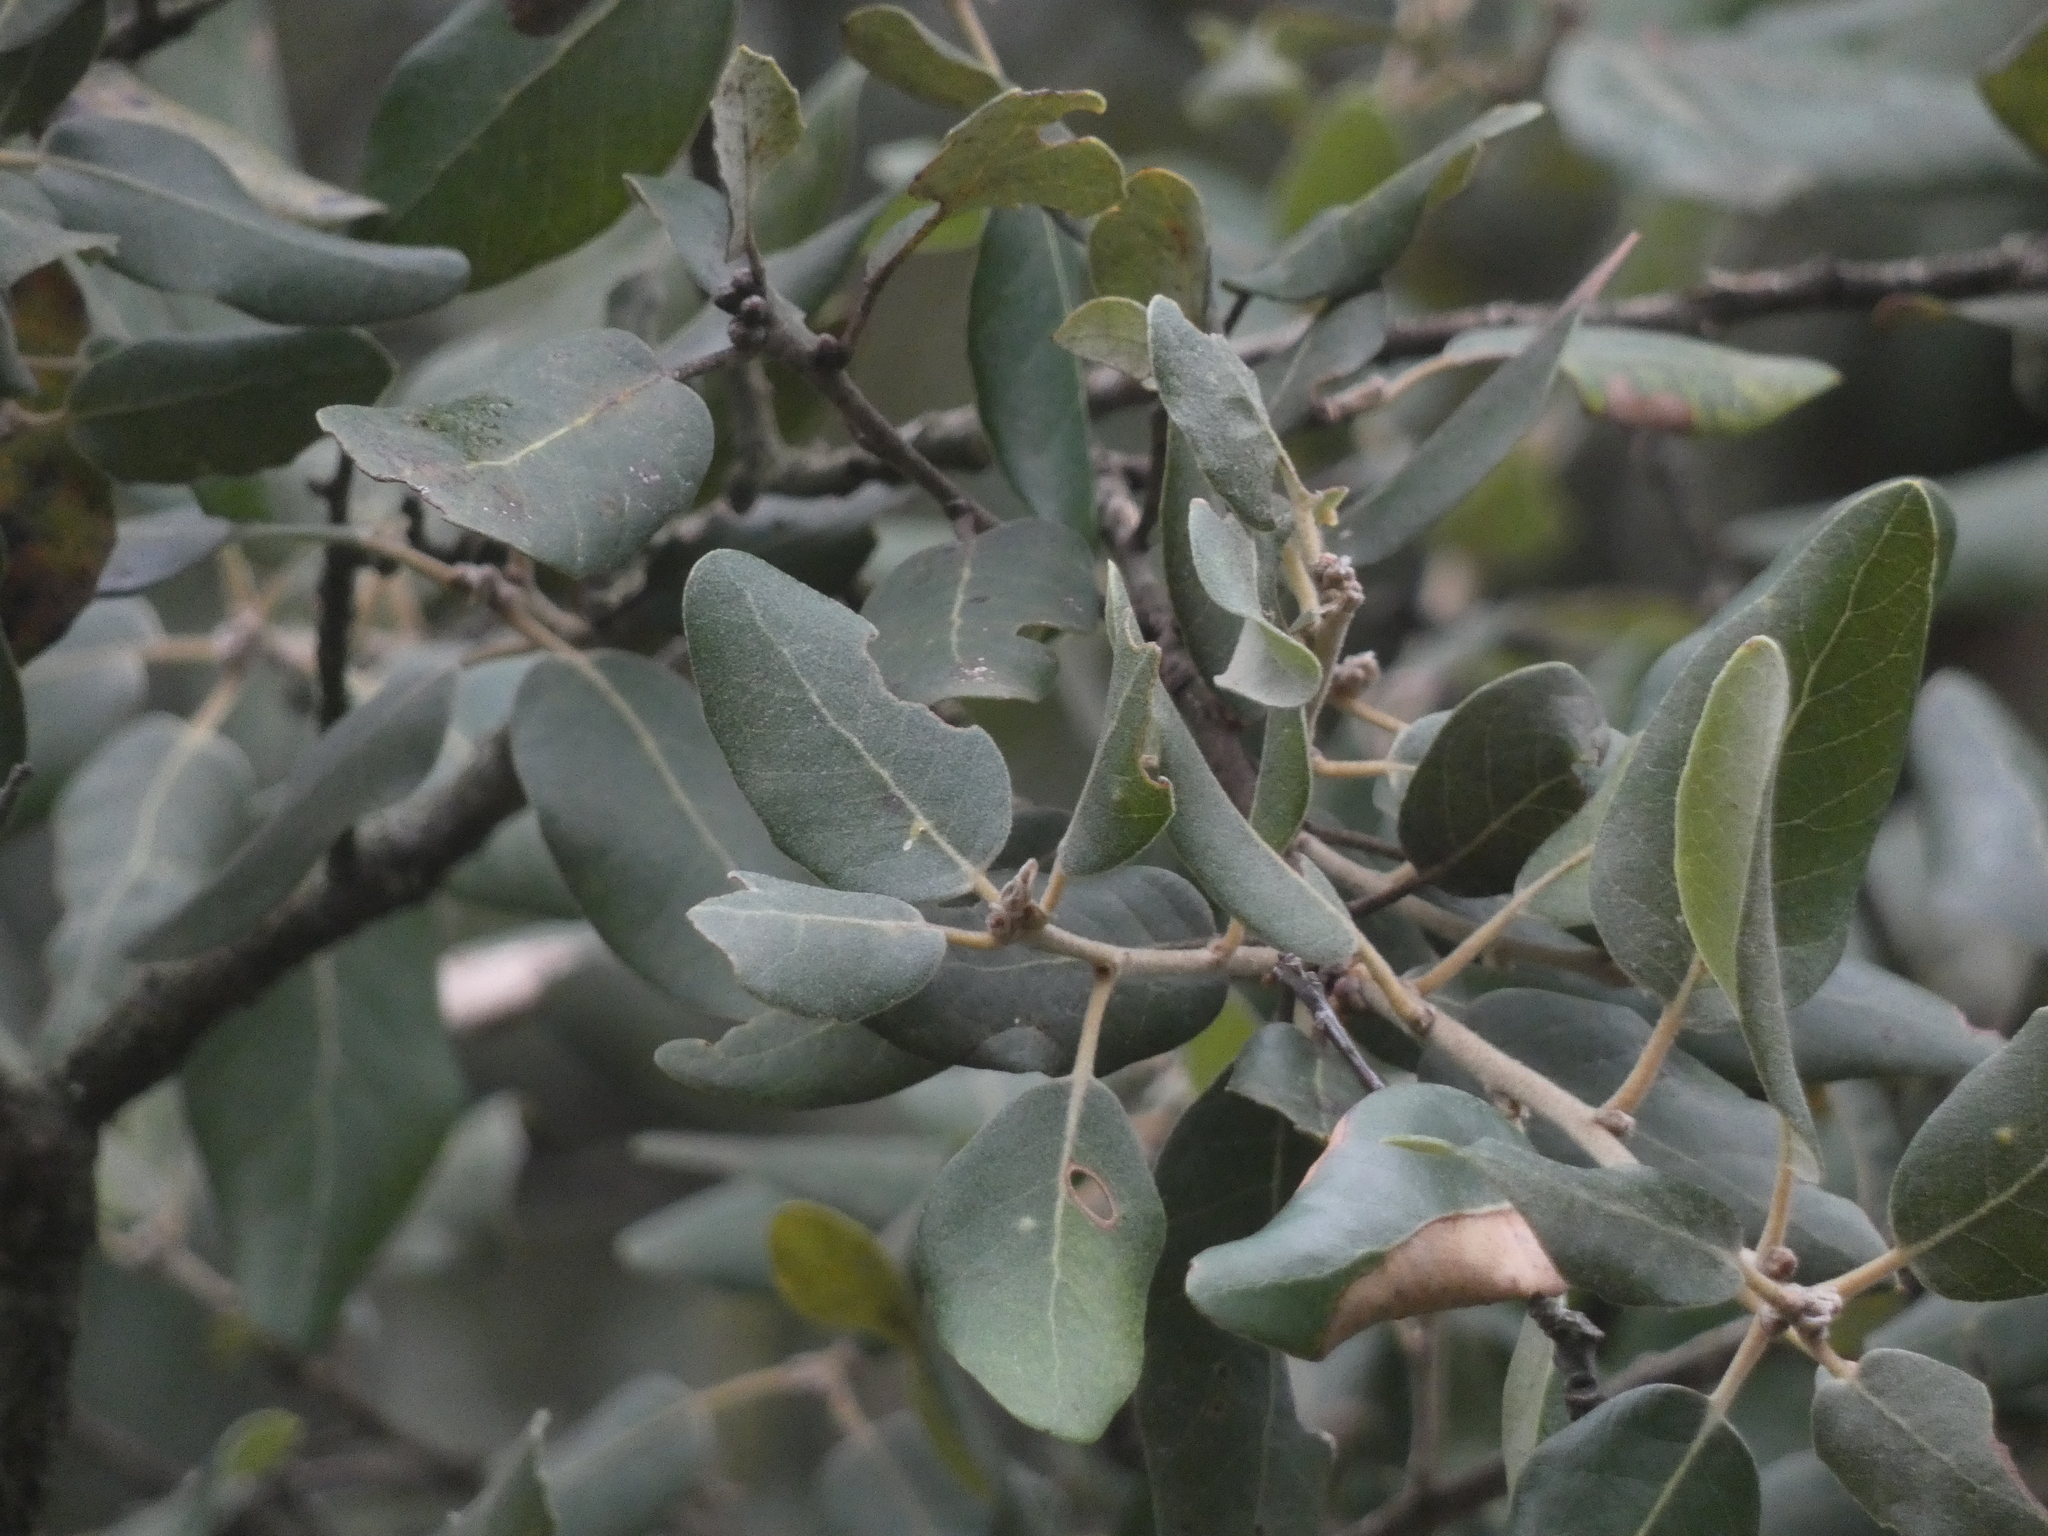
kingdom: Plantae
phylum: Tracheophyta
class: Magnoliopsida
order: Fagales
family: Fagaceae
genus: Quercus
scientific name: Quercus ilex
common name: Evergreen oak
